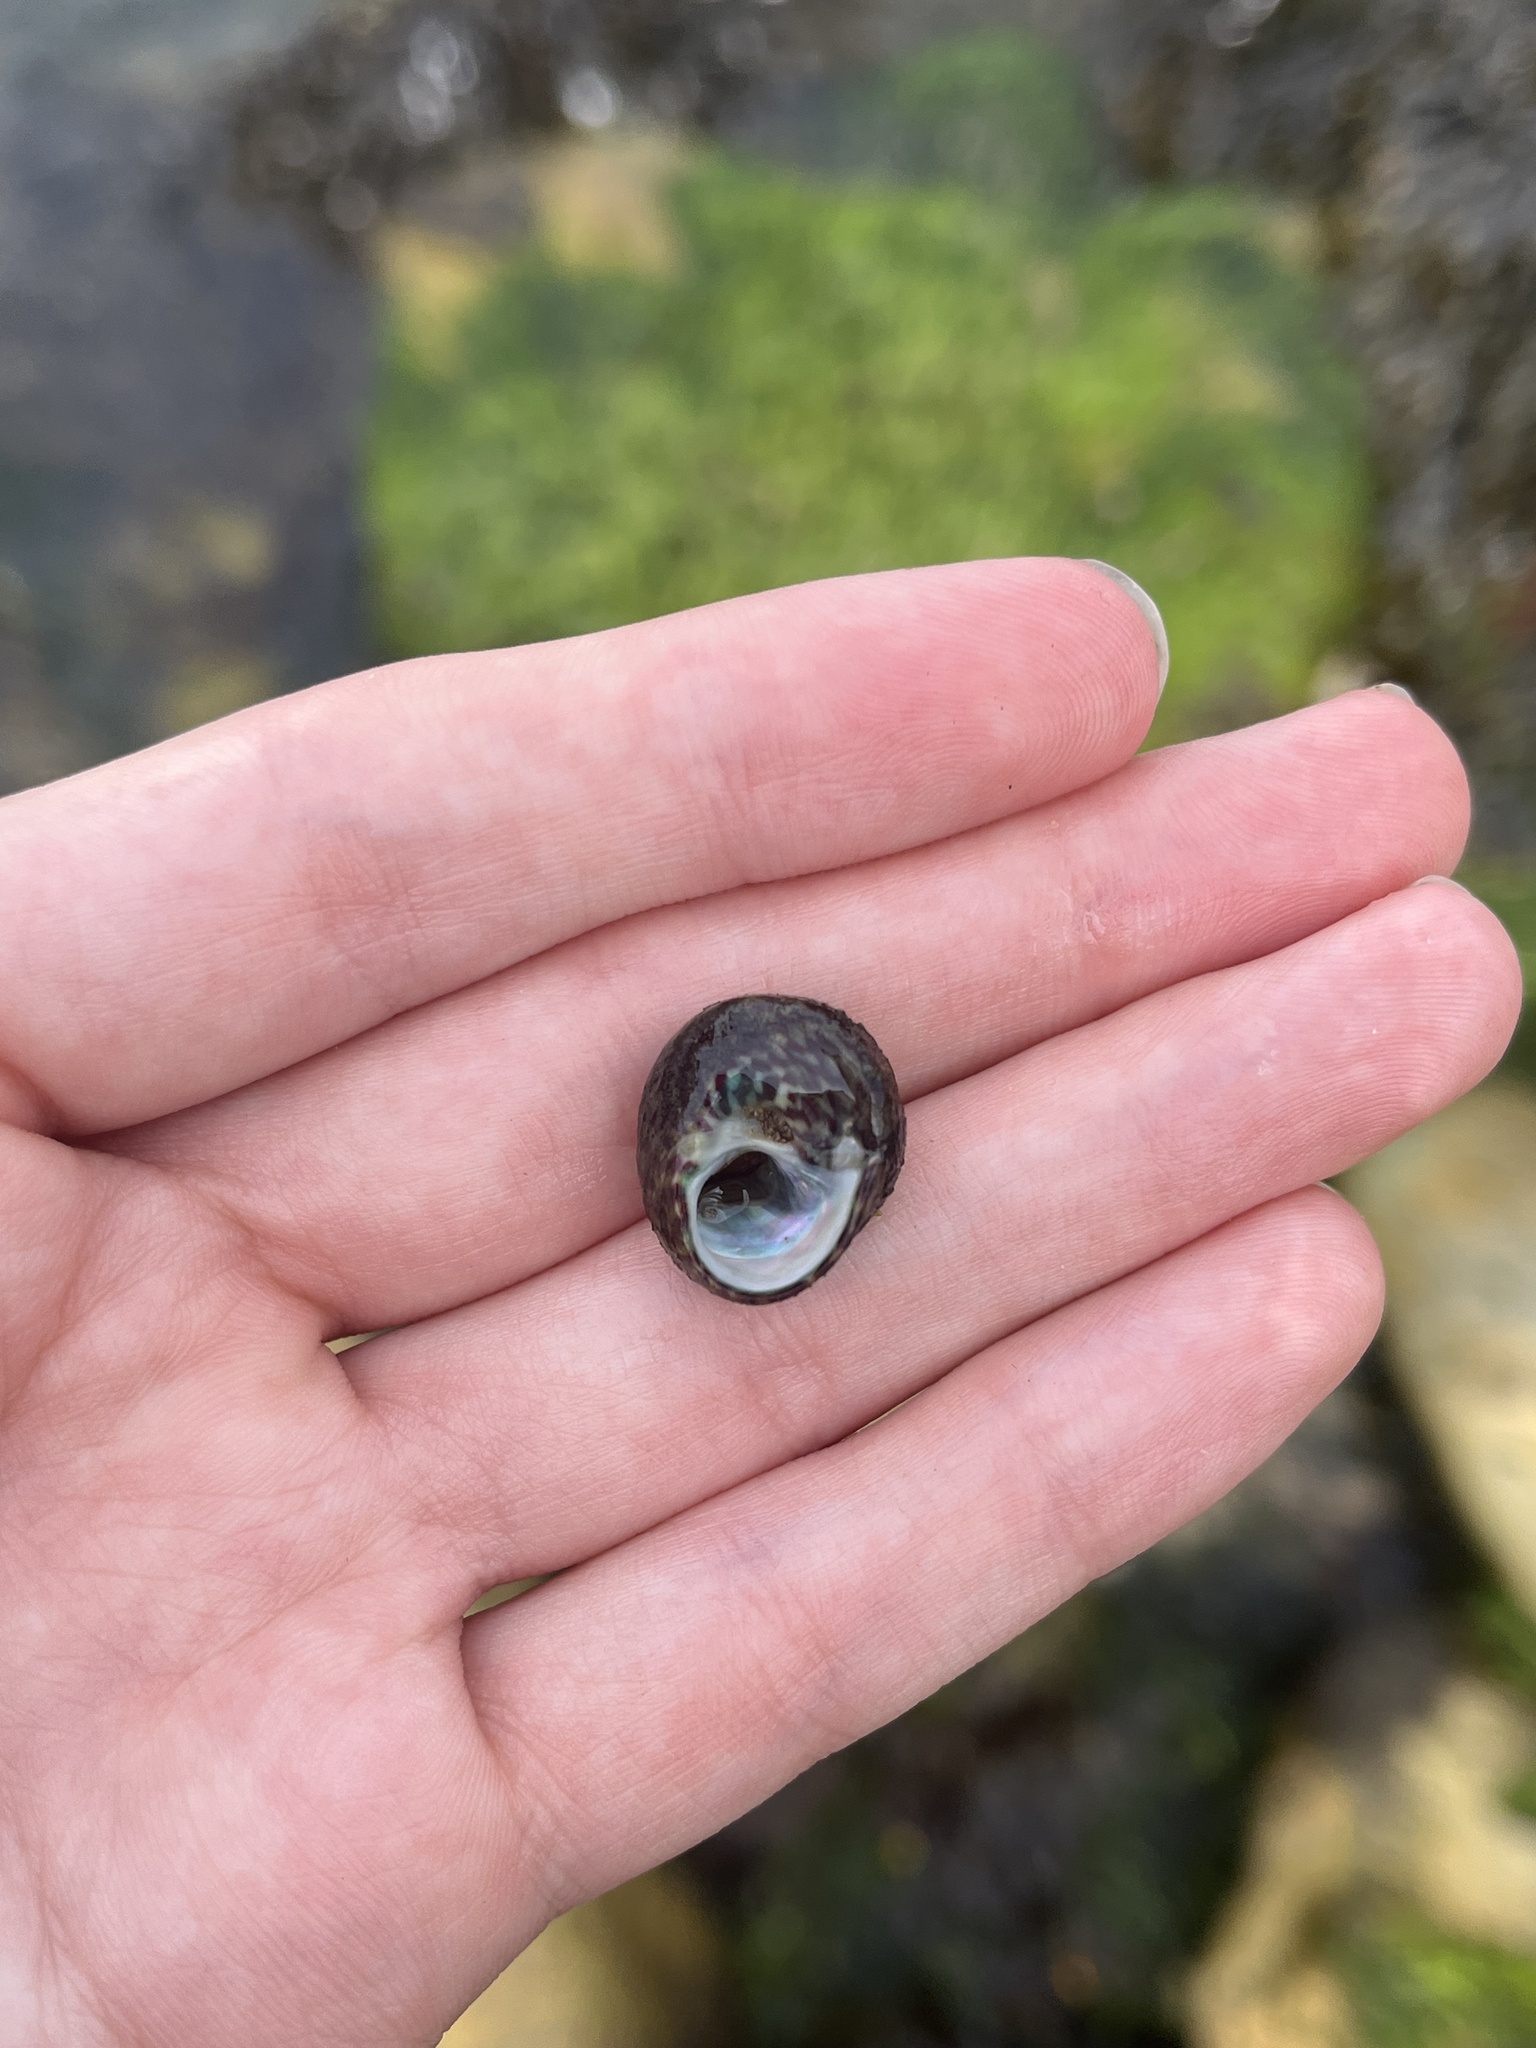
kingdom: Animalia
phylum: Mollusca
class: Gastropoda
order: Trochida
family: Trochidae
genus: Steromphala
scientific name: Steromphala umbilicalis
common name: Flat top shell
